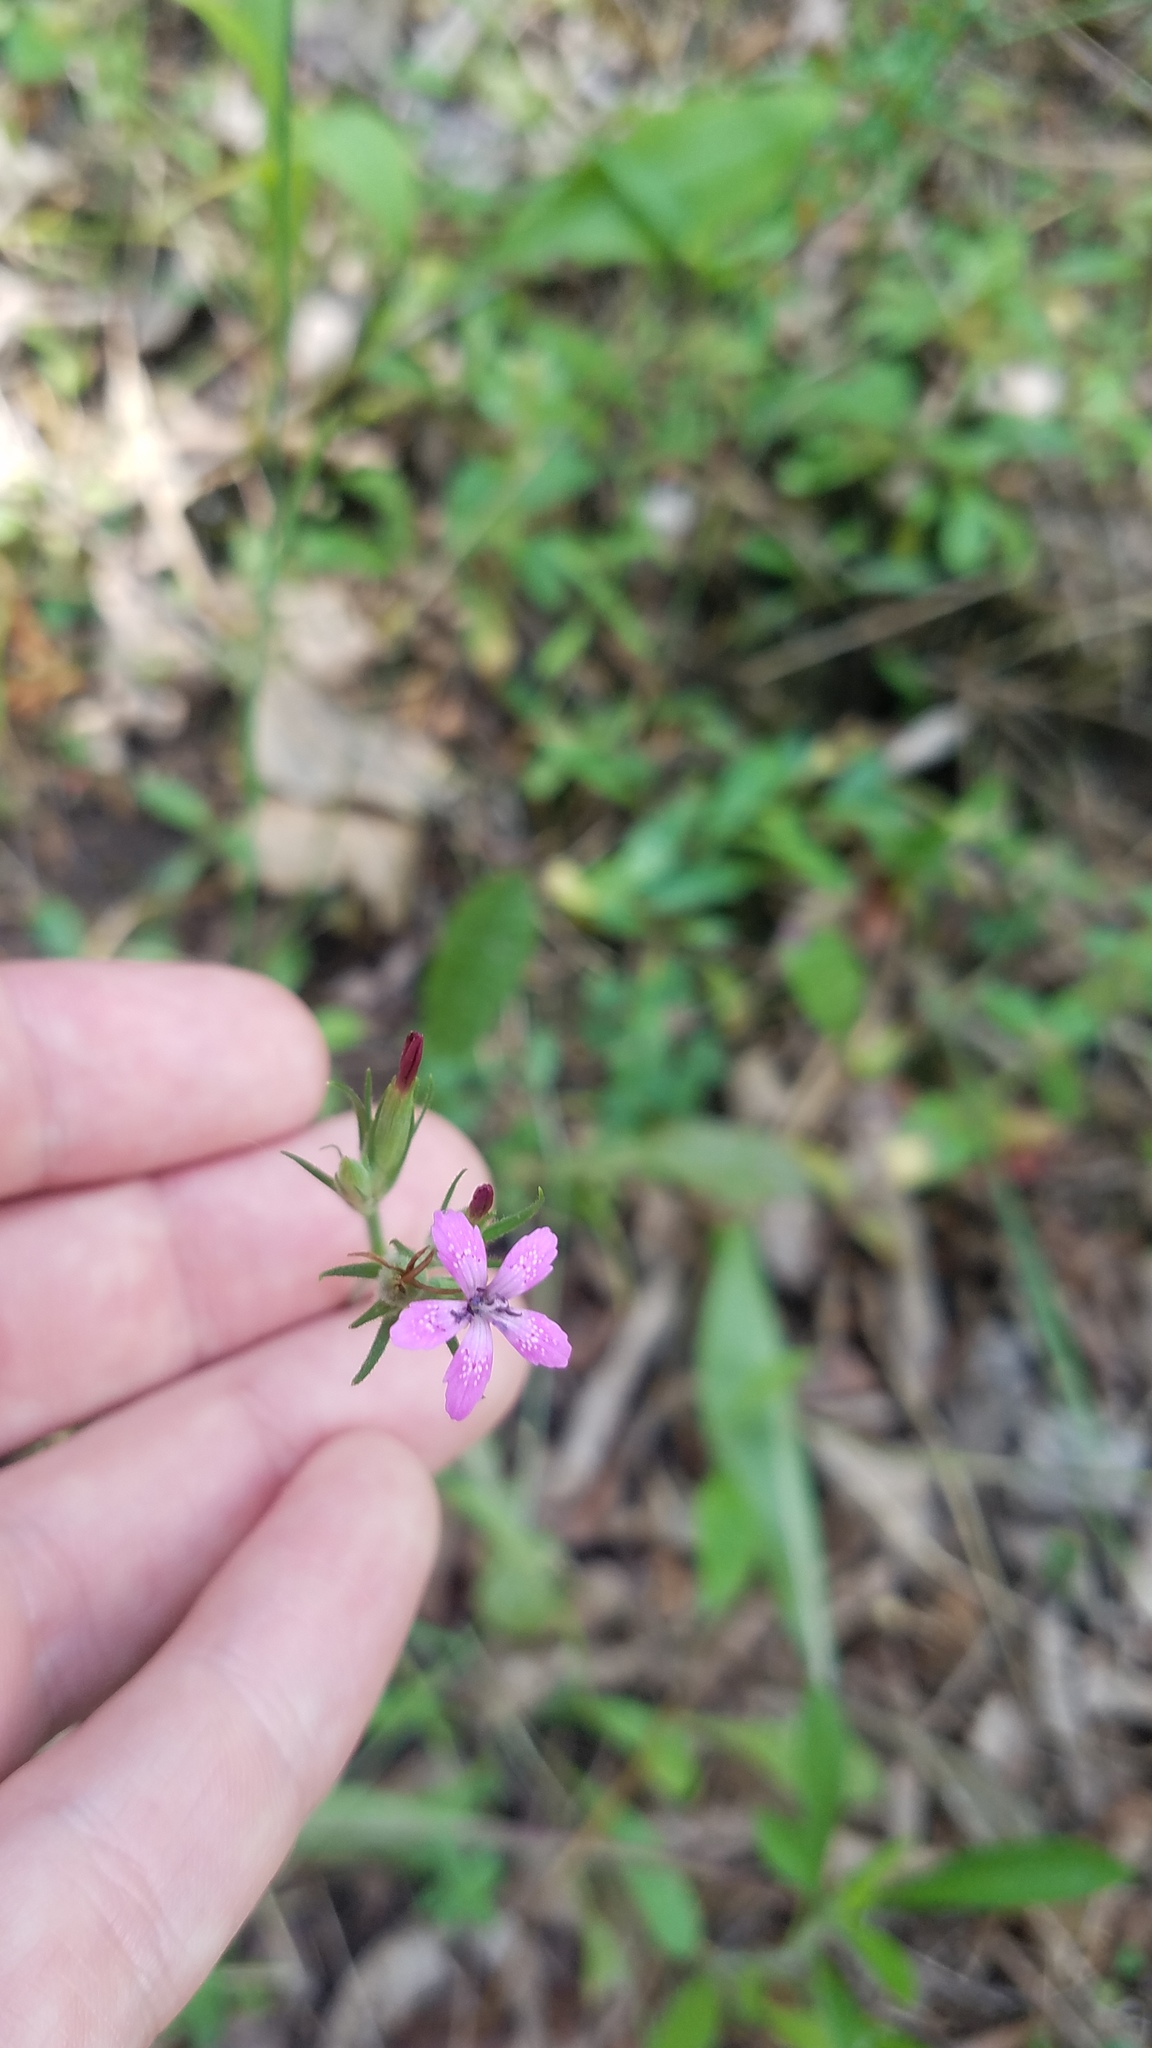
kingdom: Plantae
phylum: Tracheophyta
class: Magnoliopsida
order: Caryophyllales
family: Caryophyllaceae
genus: Dianthus
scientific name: Dianthus armeria
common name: Deptford pink
